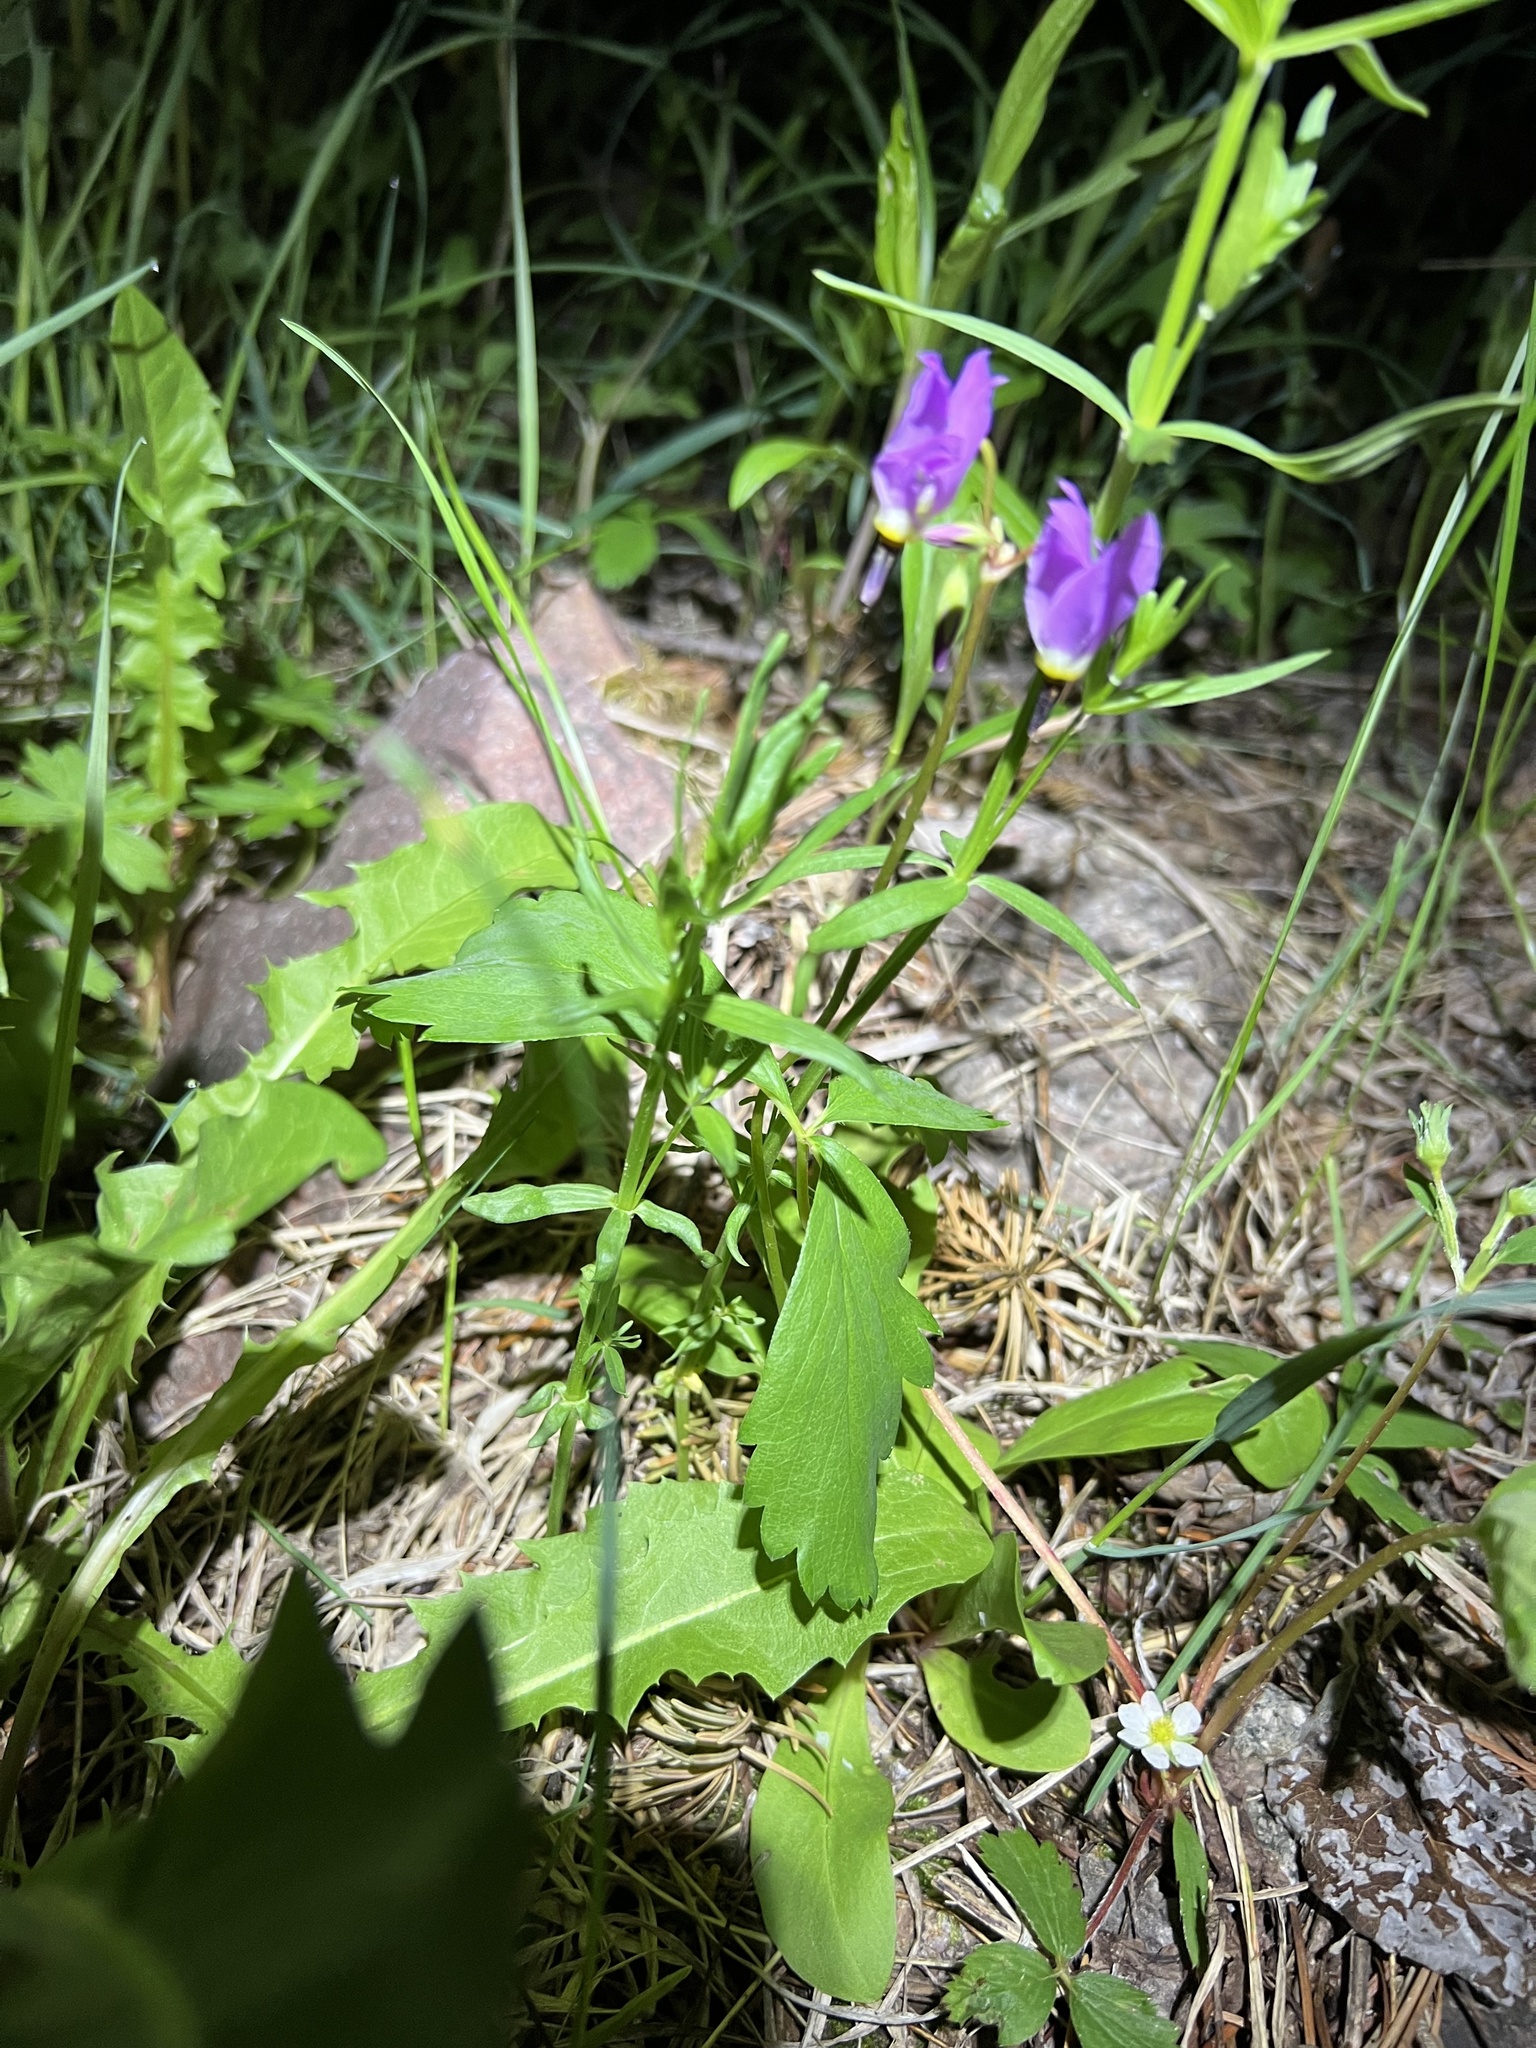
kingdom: Plantae
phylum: Tracheophyta
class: Magnoliopsida
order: Ericales
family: Primulaceae
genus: Dodecatheon
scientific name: Dodecatheon pulchellum
